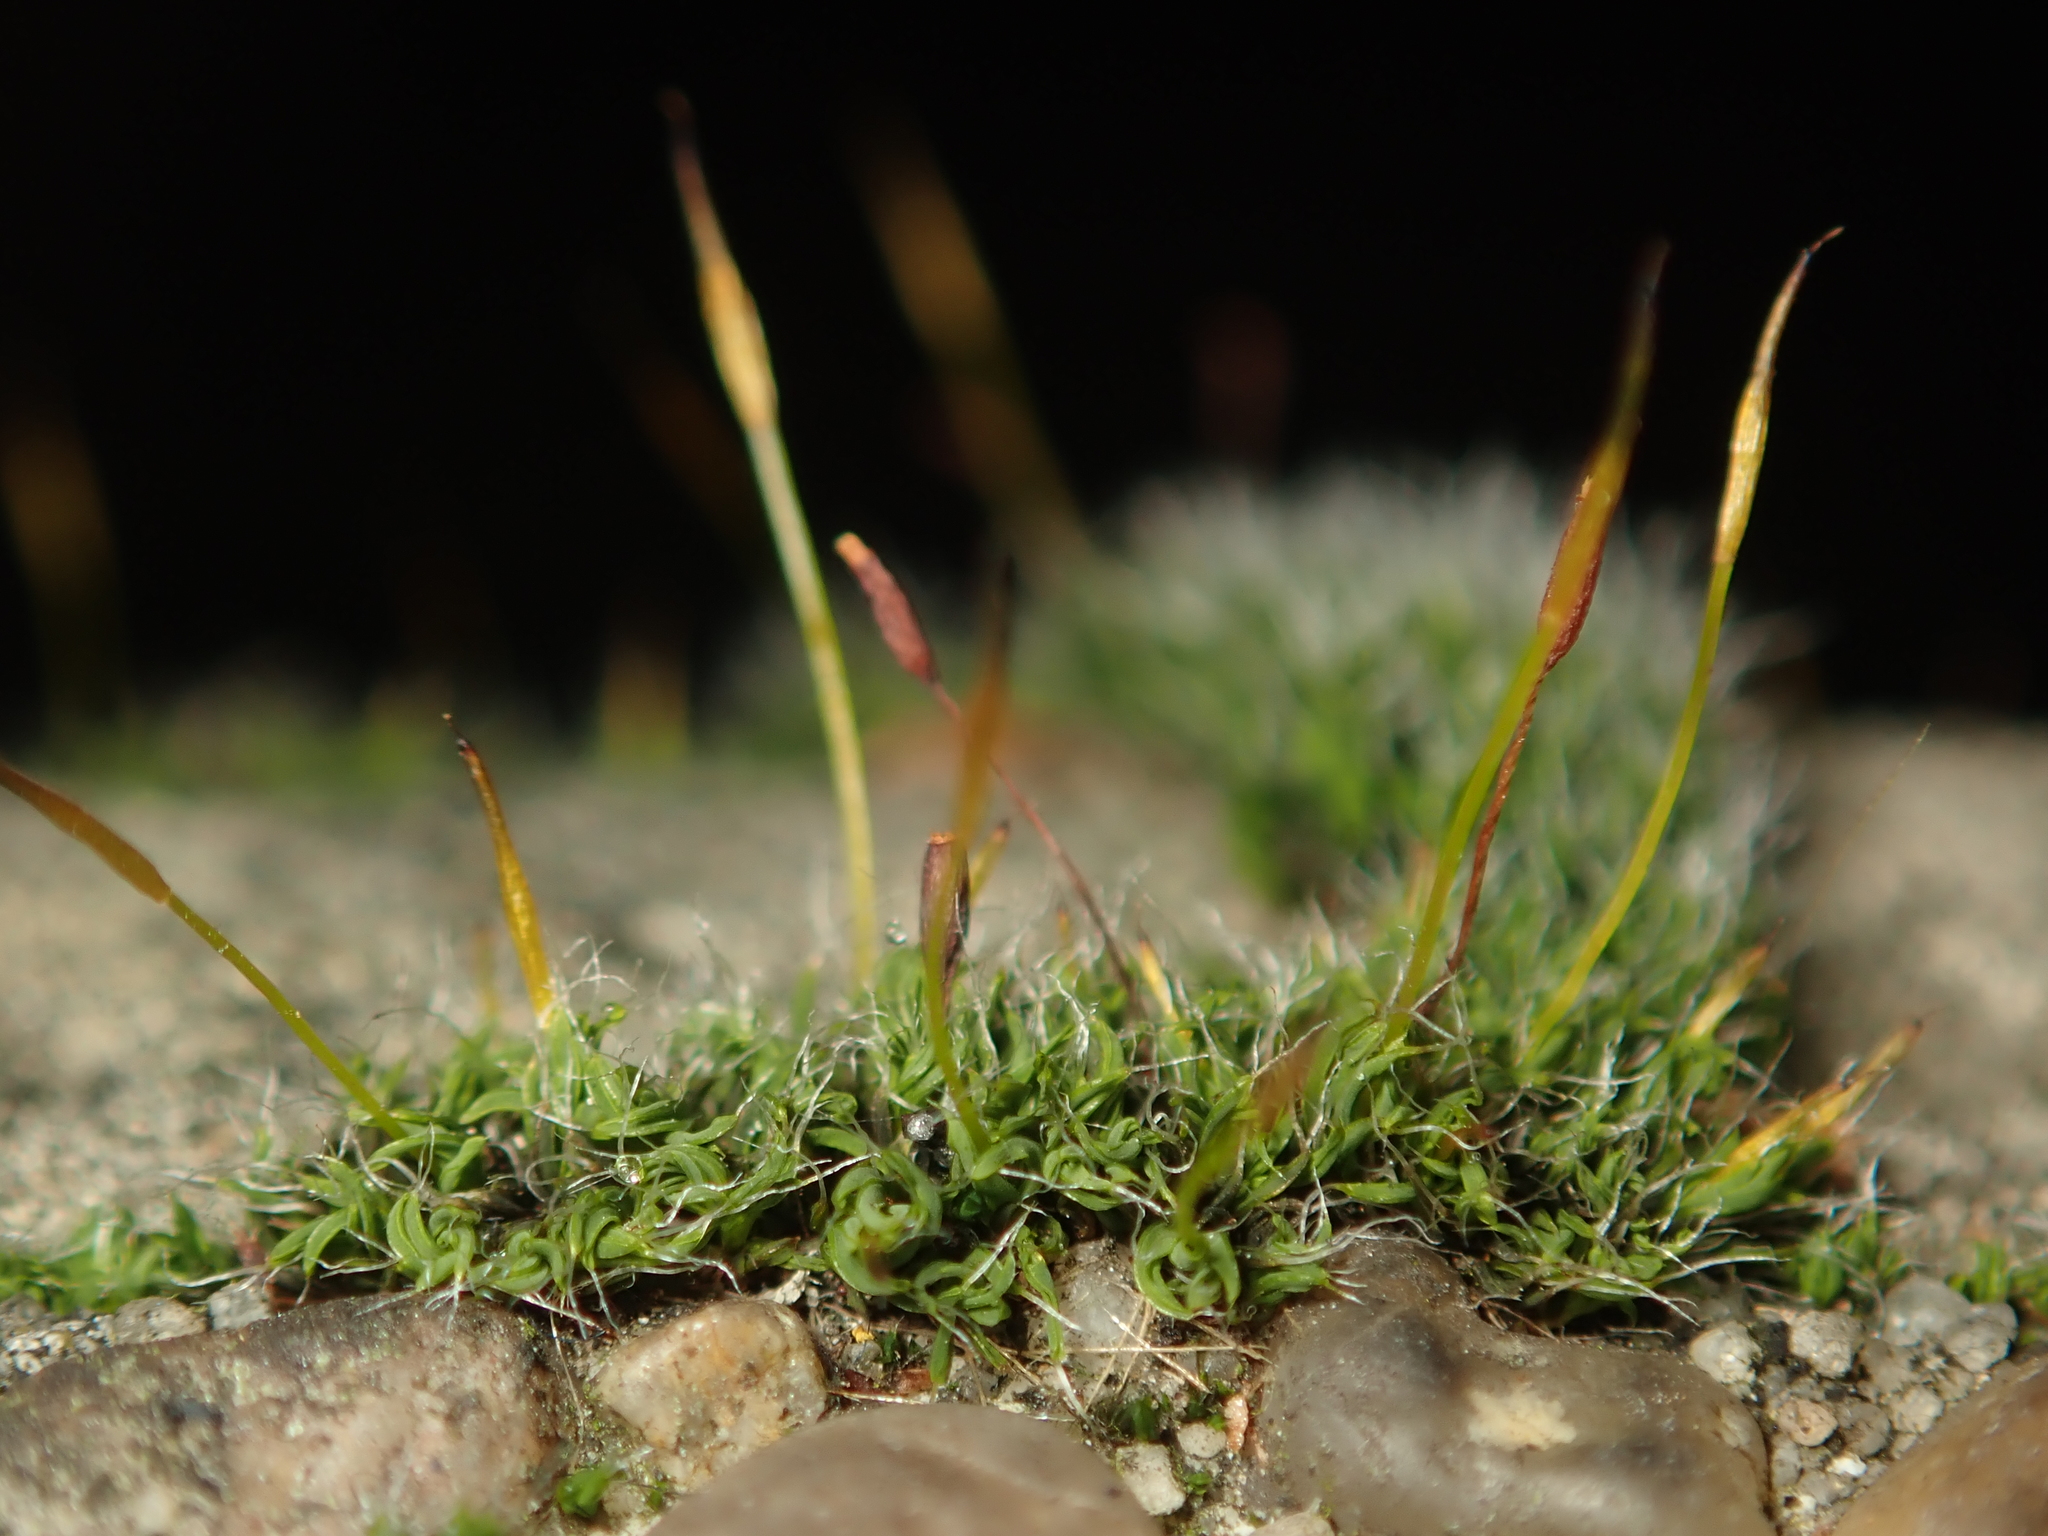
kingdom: Plantae
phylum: Bryophyta
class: Bryopsida
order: Pottiales
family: Pottiaceae
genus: Tortula
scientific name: Tortula muralis
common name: Wall screw-moss
